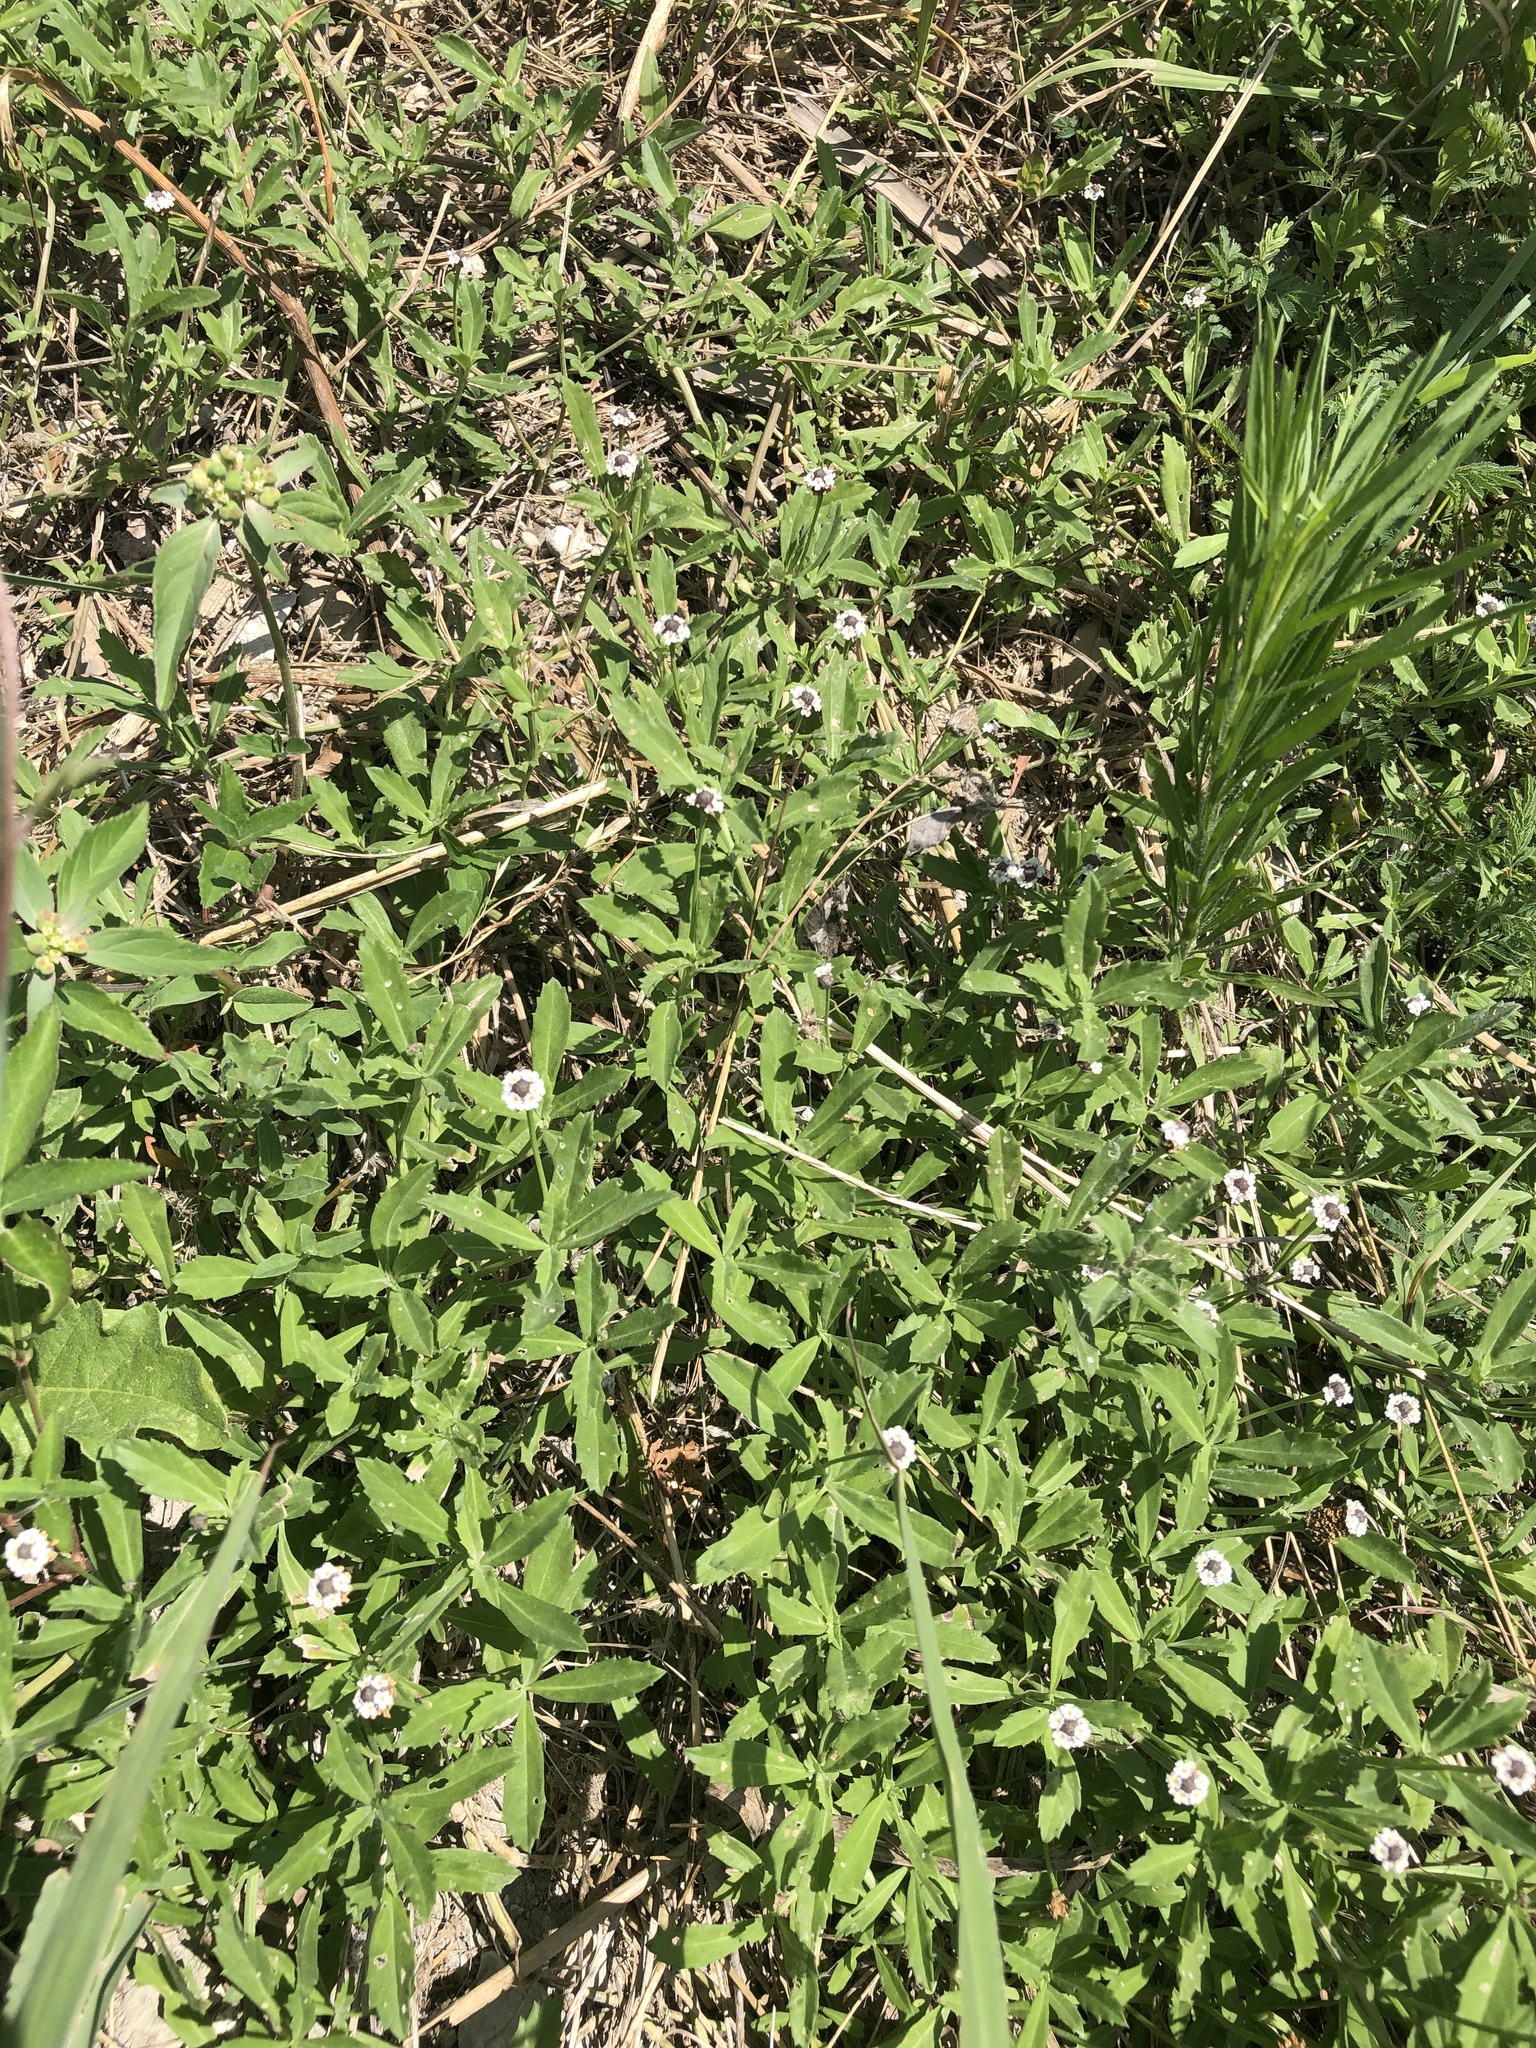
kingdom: Plantae
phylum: Tracheophyta
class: Magnoliopsida
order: Lamiales
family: Verbenaceae
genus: Phyla
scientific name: Phyla nodiflora
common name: Frogfruit
